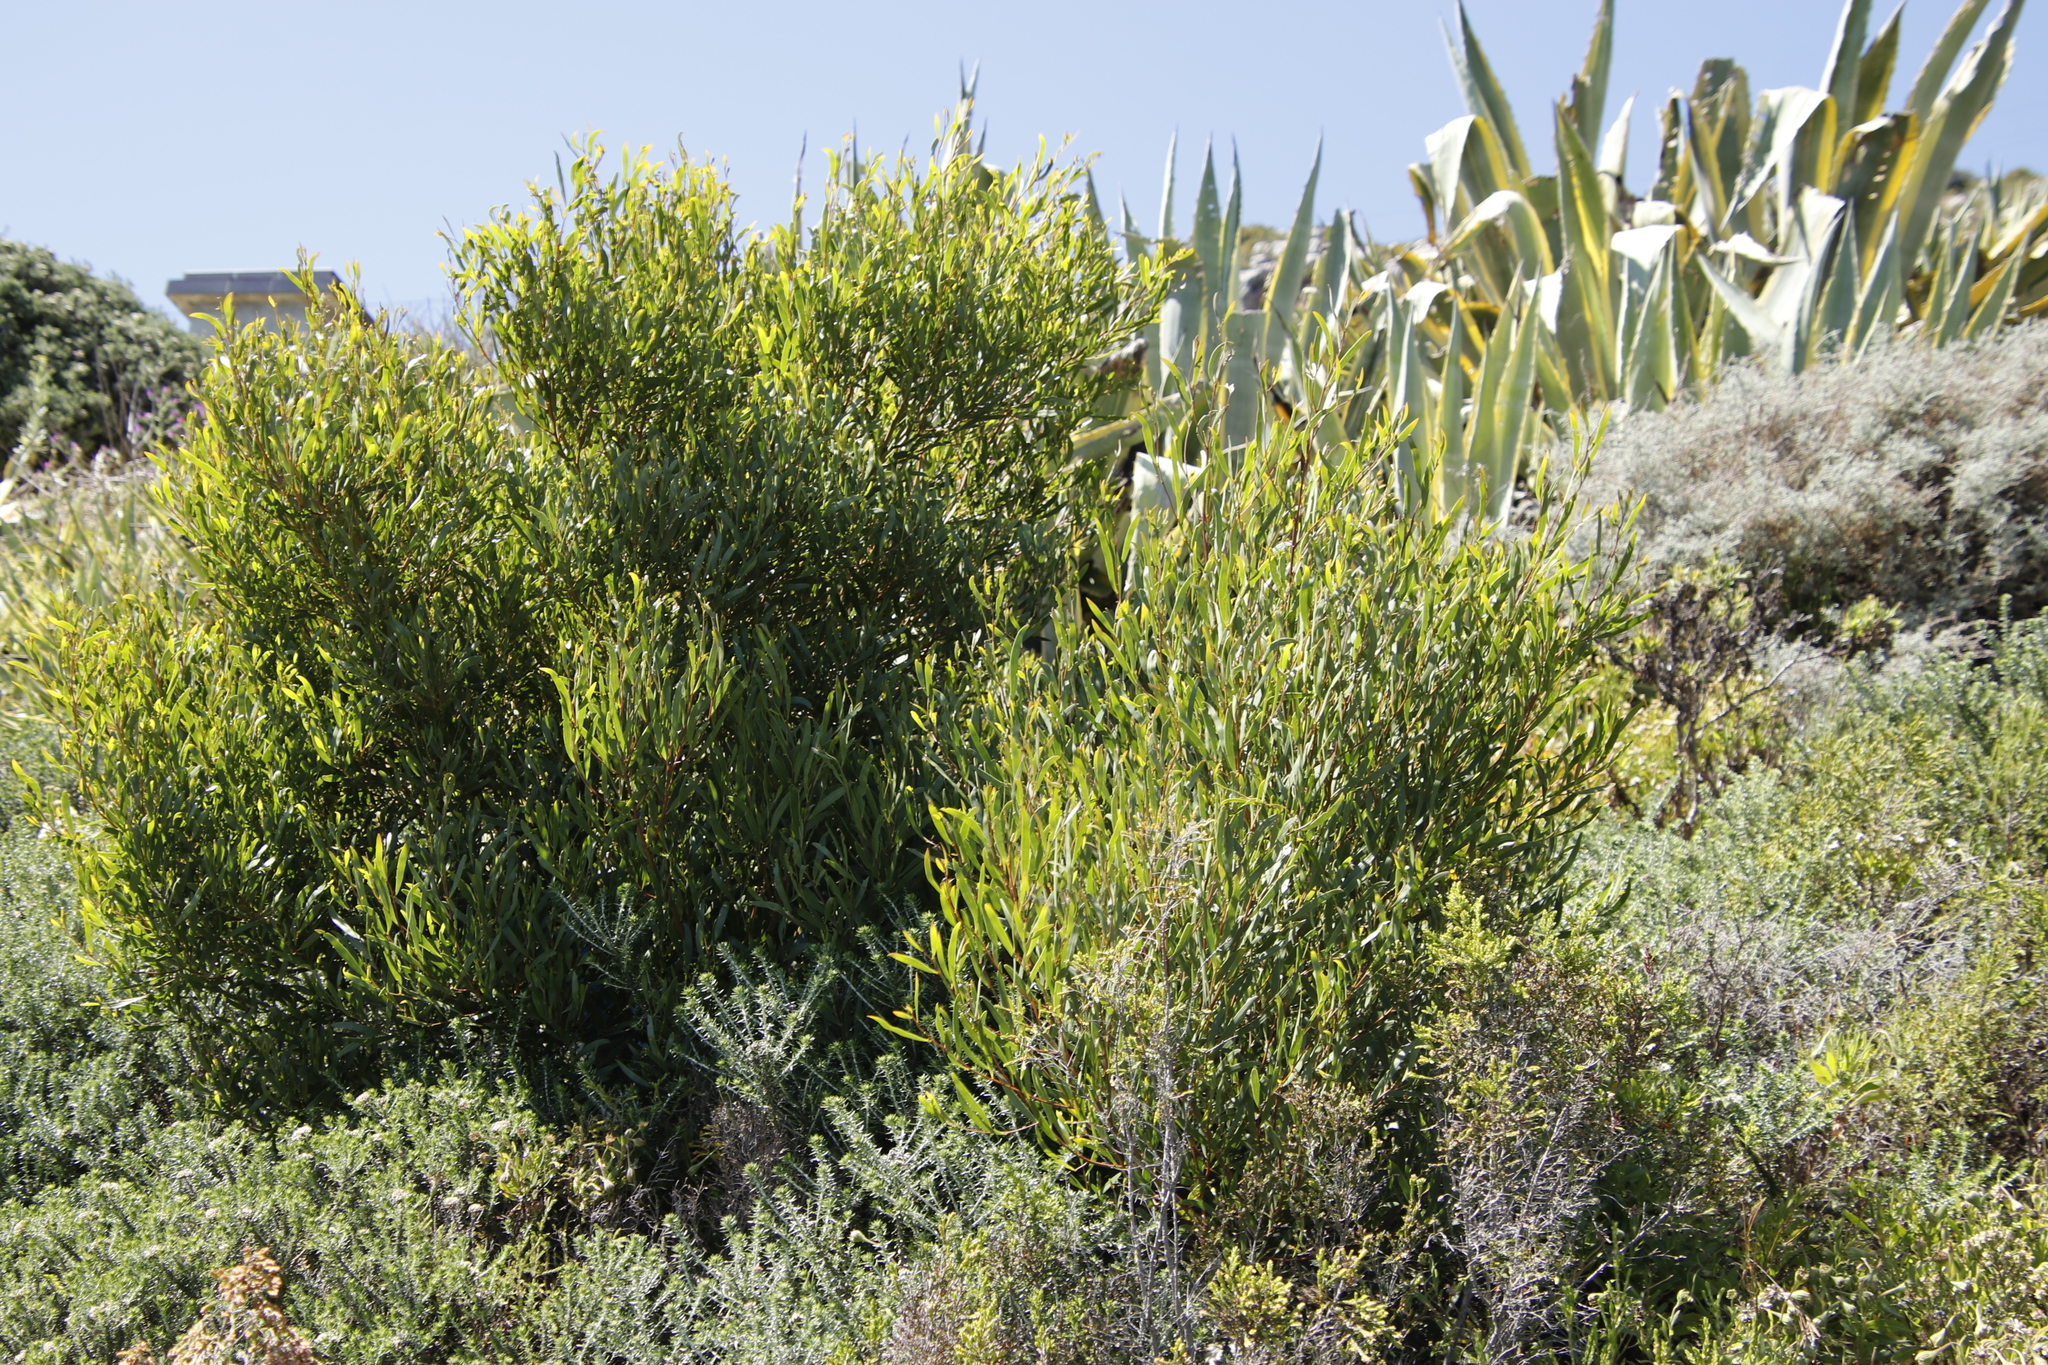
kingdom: Plantae
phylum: Tracheophyta
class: Magnoliopsida
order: Fabales
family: Fabaceae
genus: Acacia
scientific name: Acacia cyclops
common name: Coastal wattle
